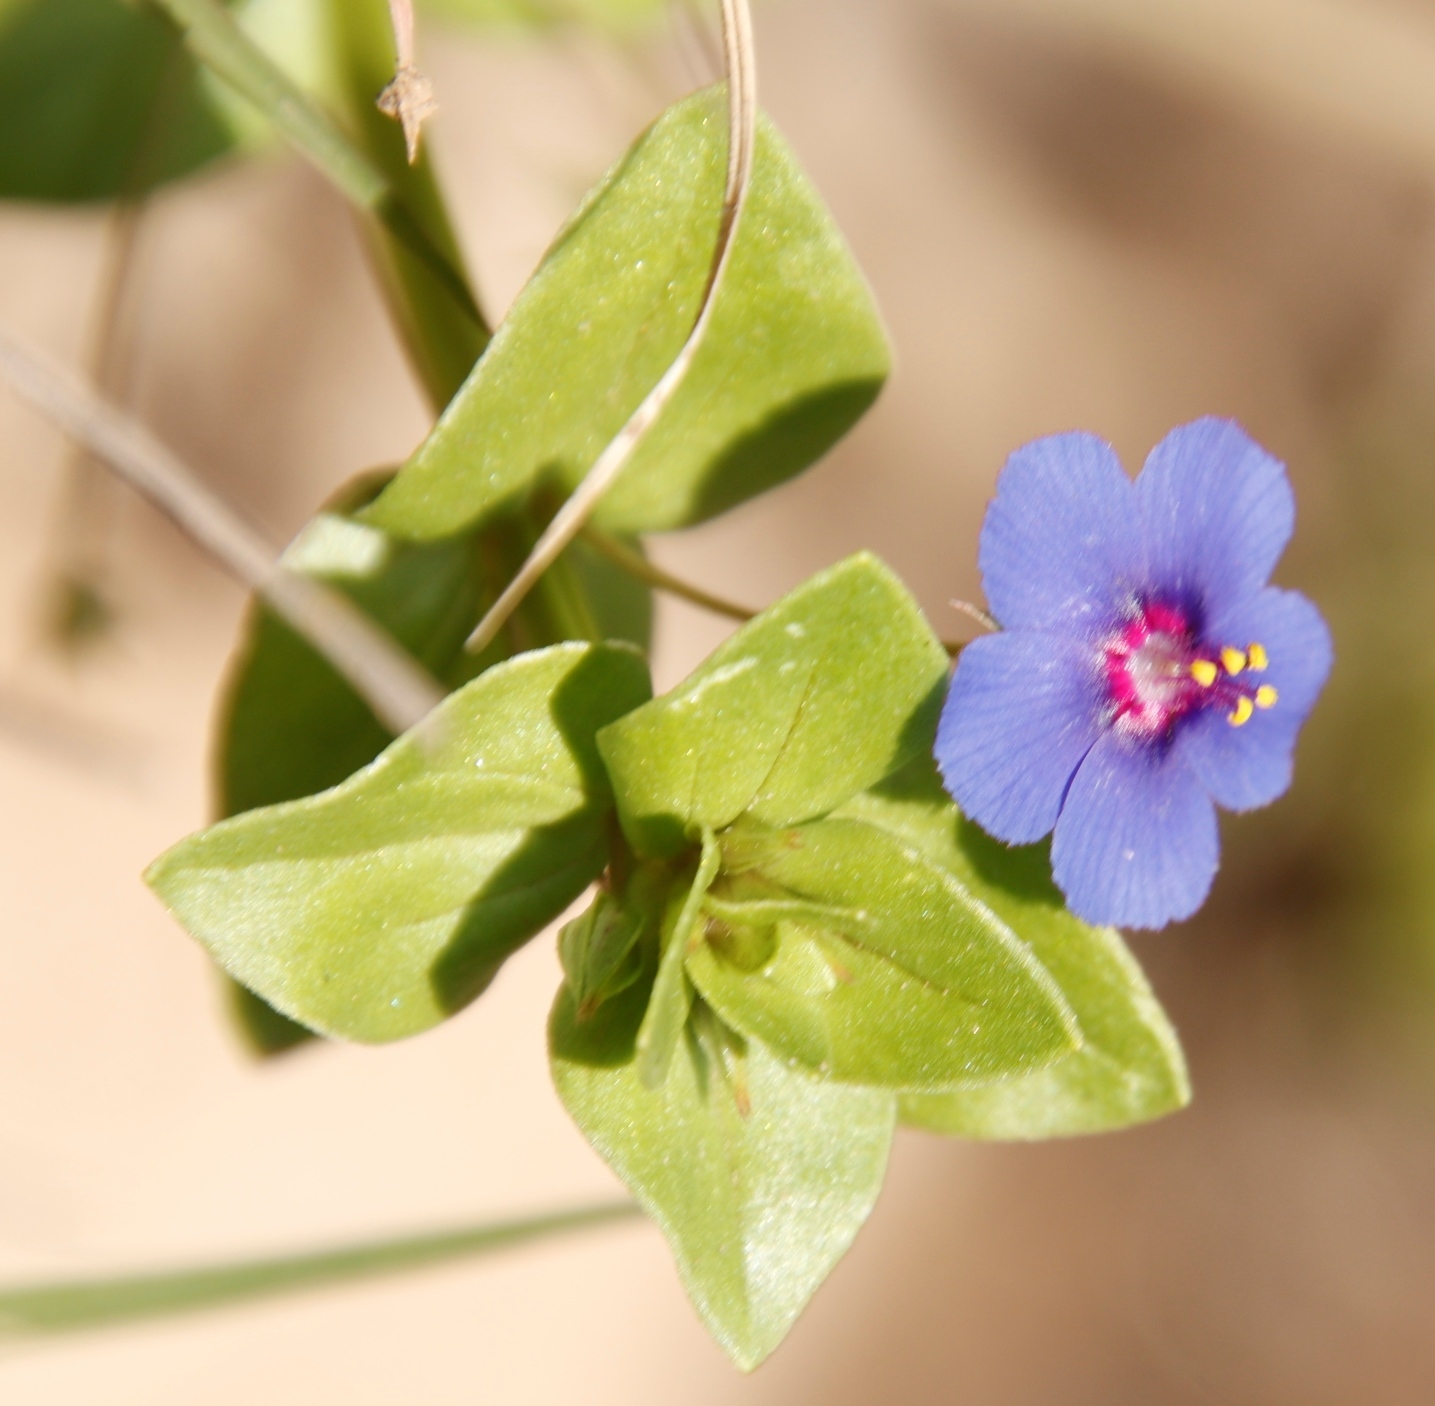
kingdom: Plantae
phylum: Tracheophyta
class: Magnoliopsida
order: Ericales
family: Primulaceae
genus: Lysimachia
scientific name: Lysimachia loeflingii
